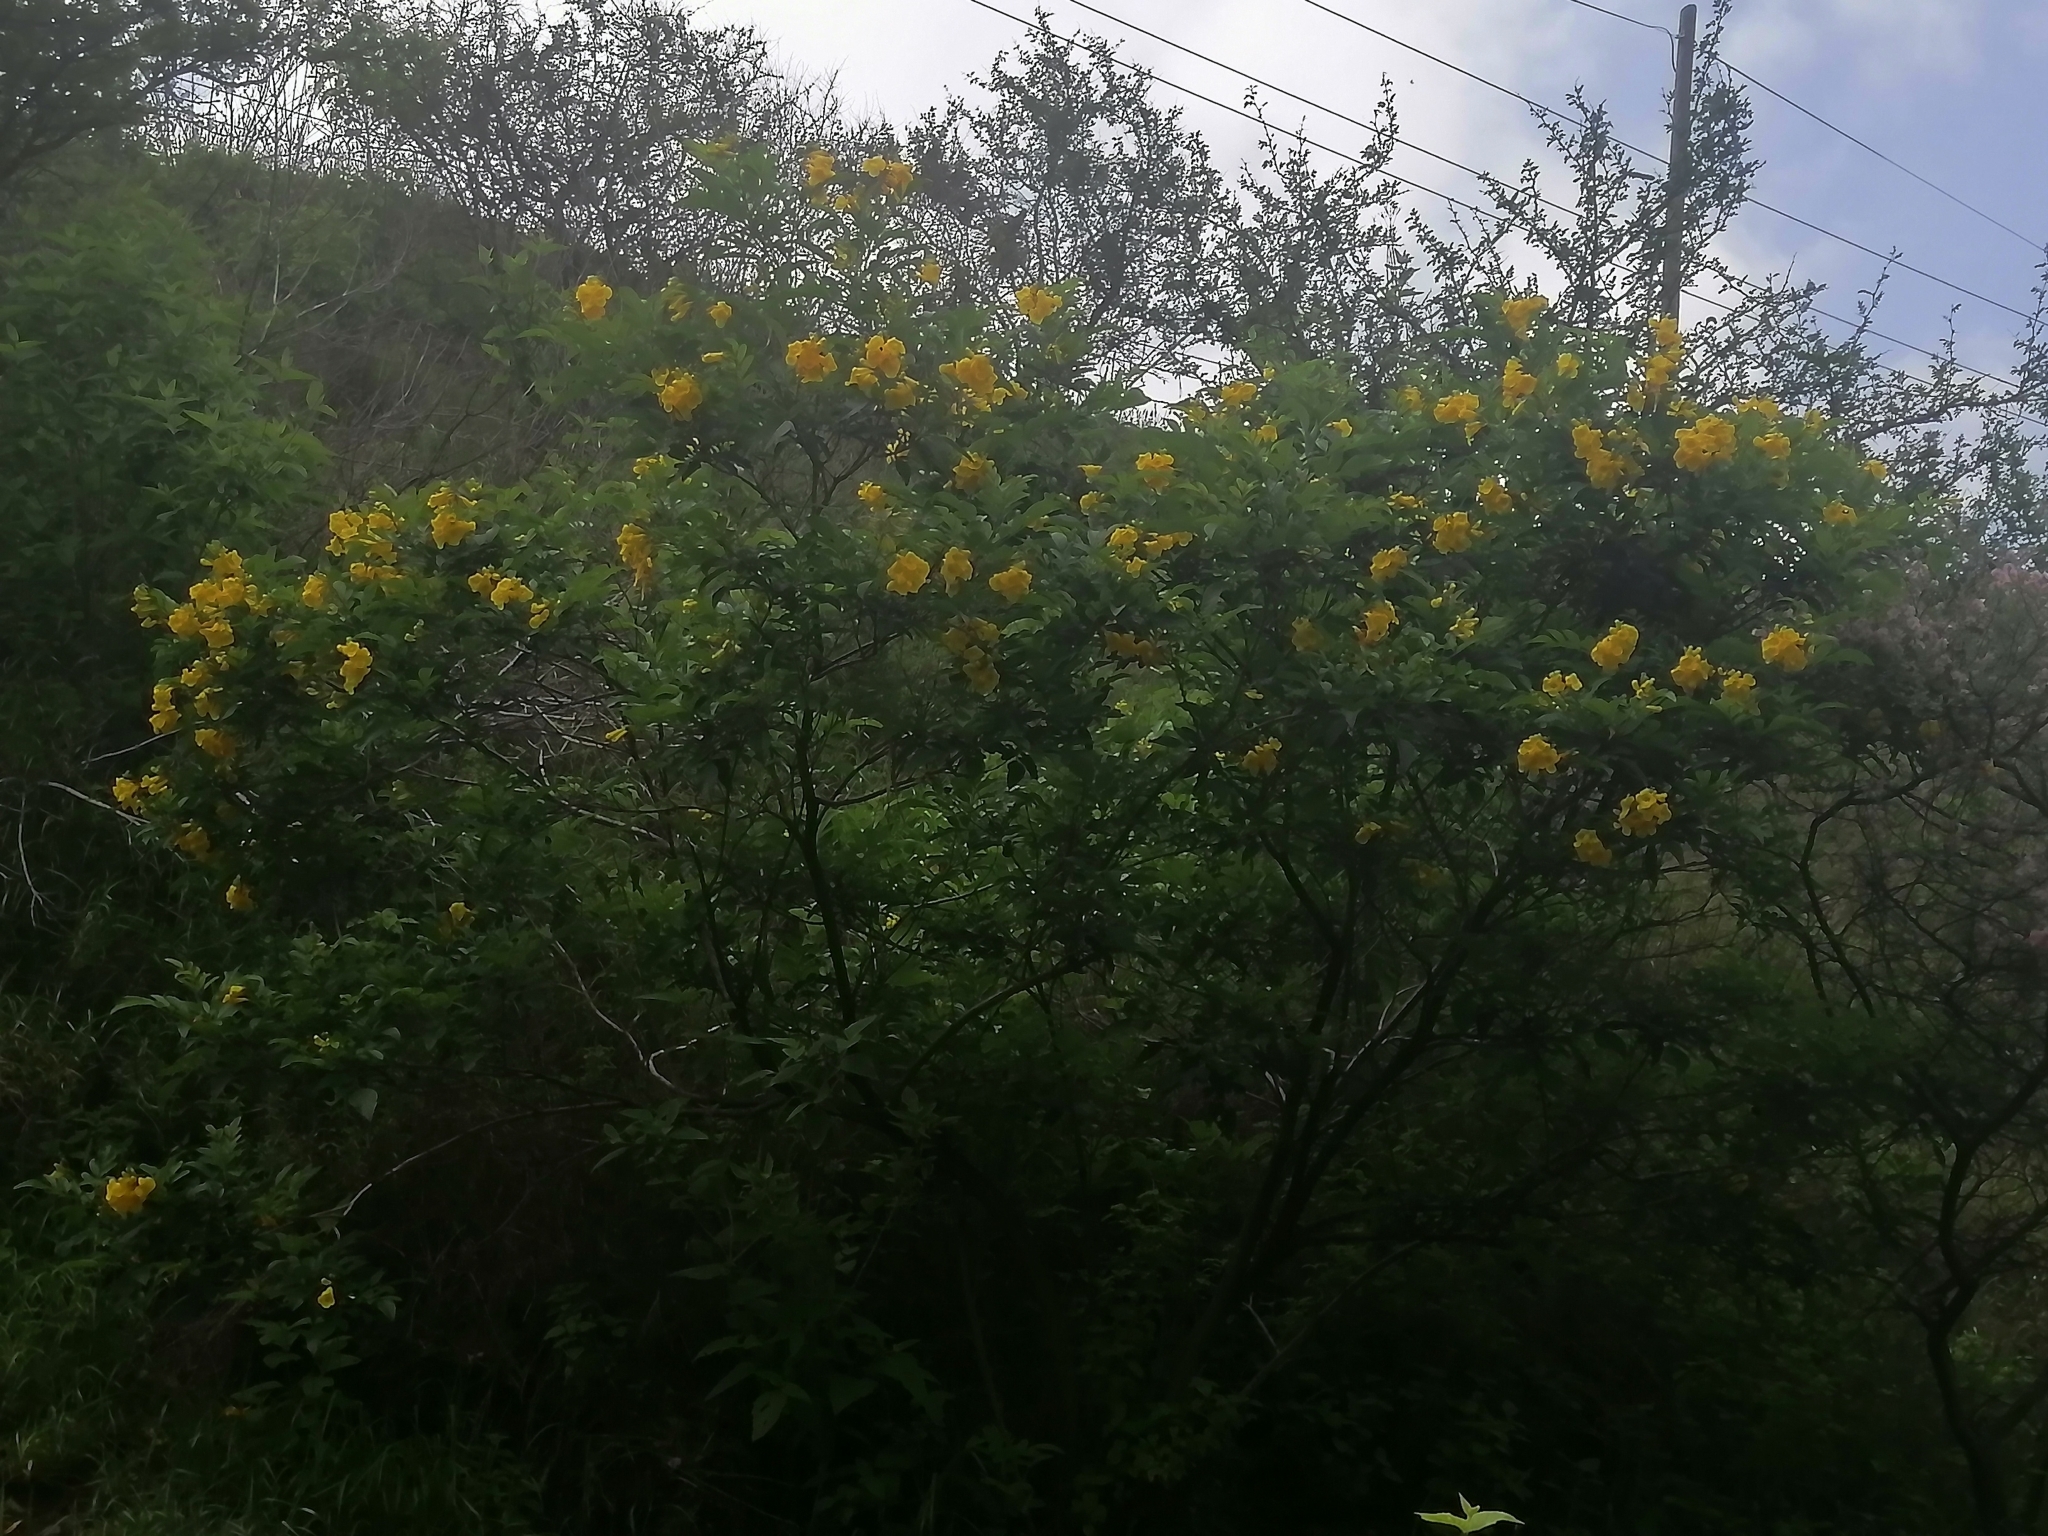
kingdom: Plantae
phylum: Tracheophyta
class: Magnoliopsida
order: Lamiales
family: Bignoniaceae
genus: Tecoma
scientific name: Tecoma stans
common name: Yellow trumpetbush
